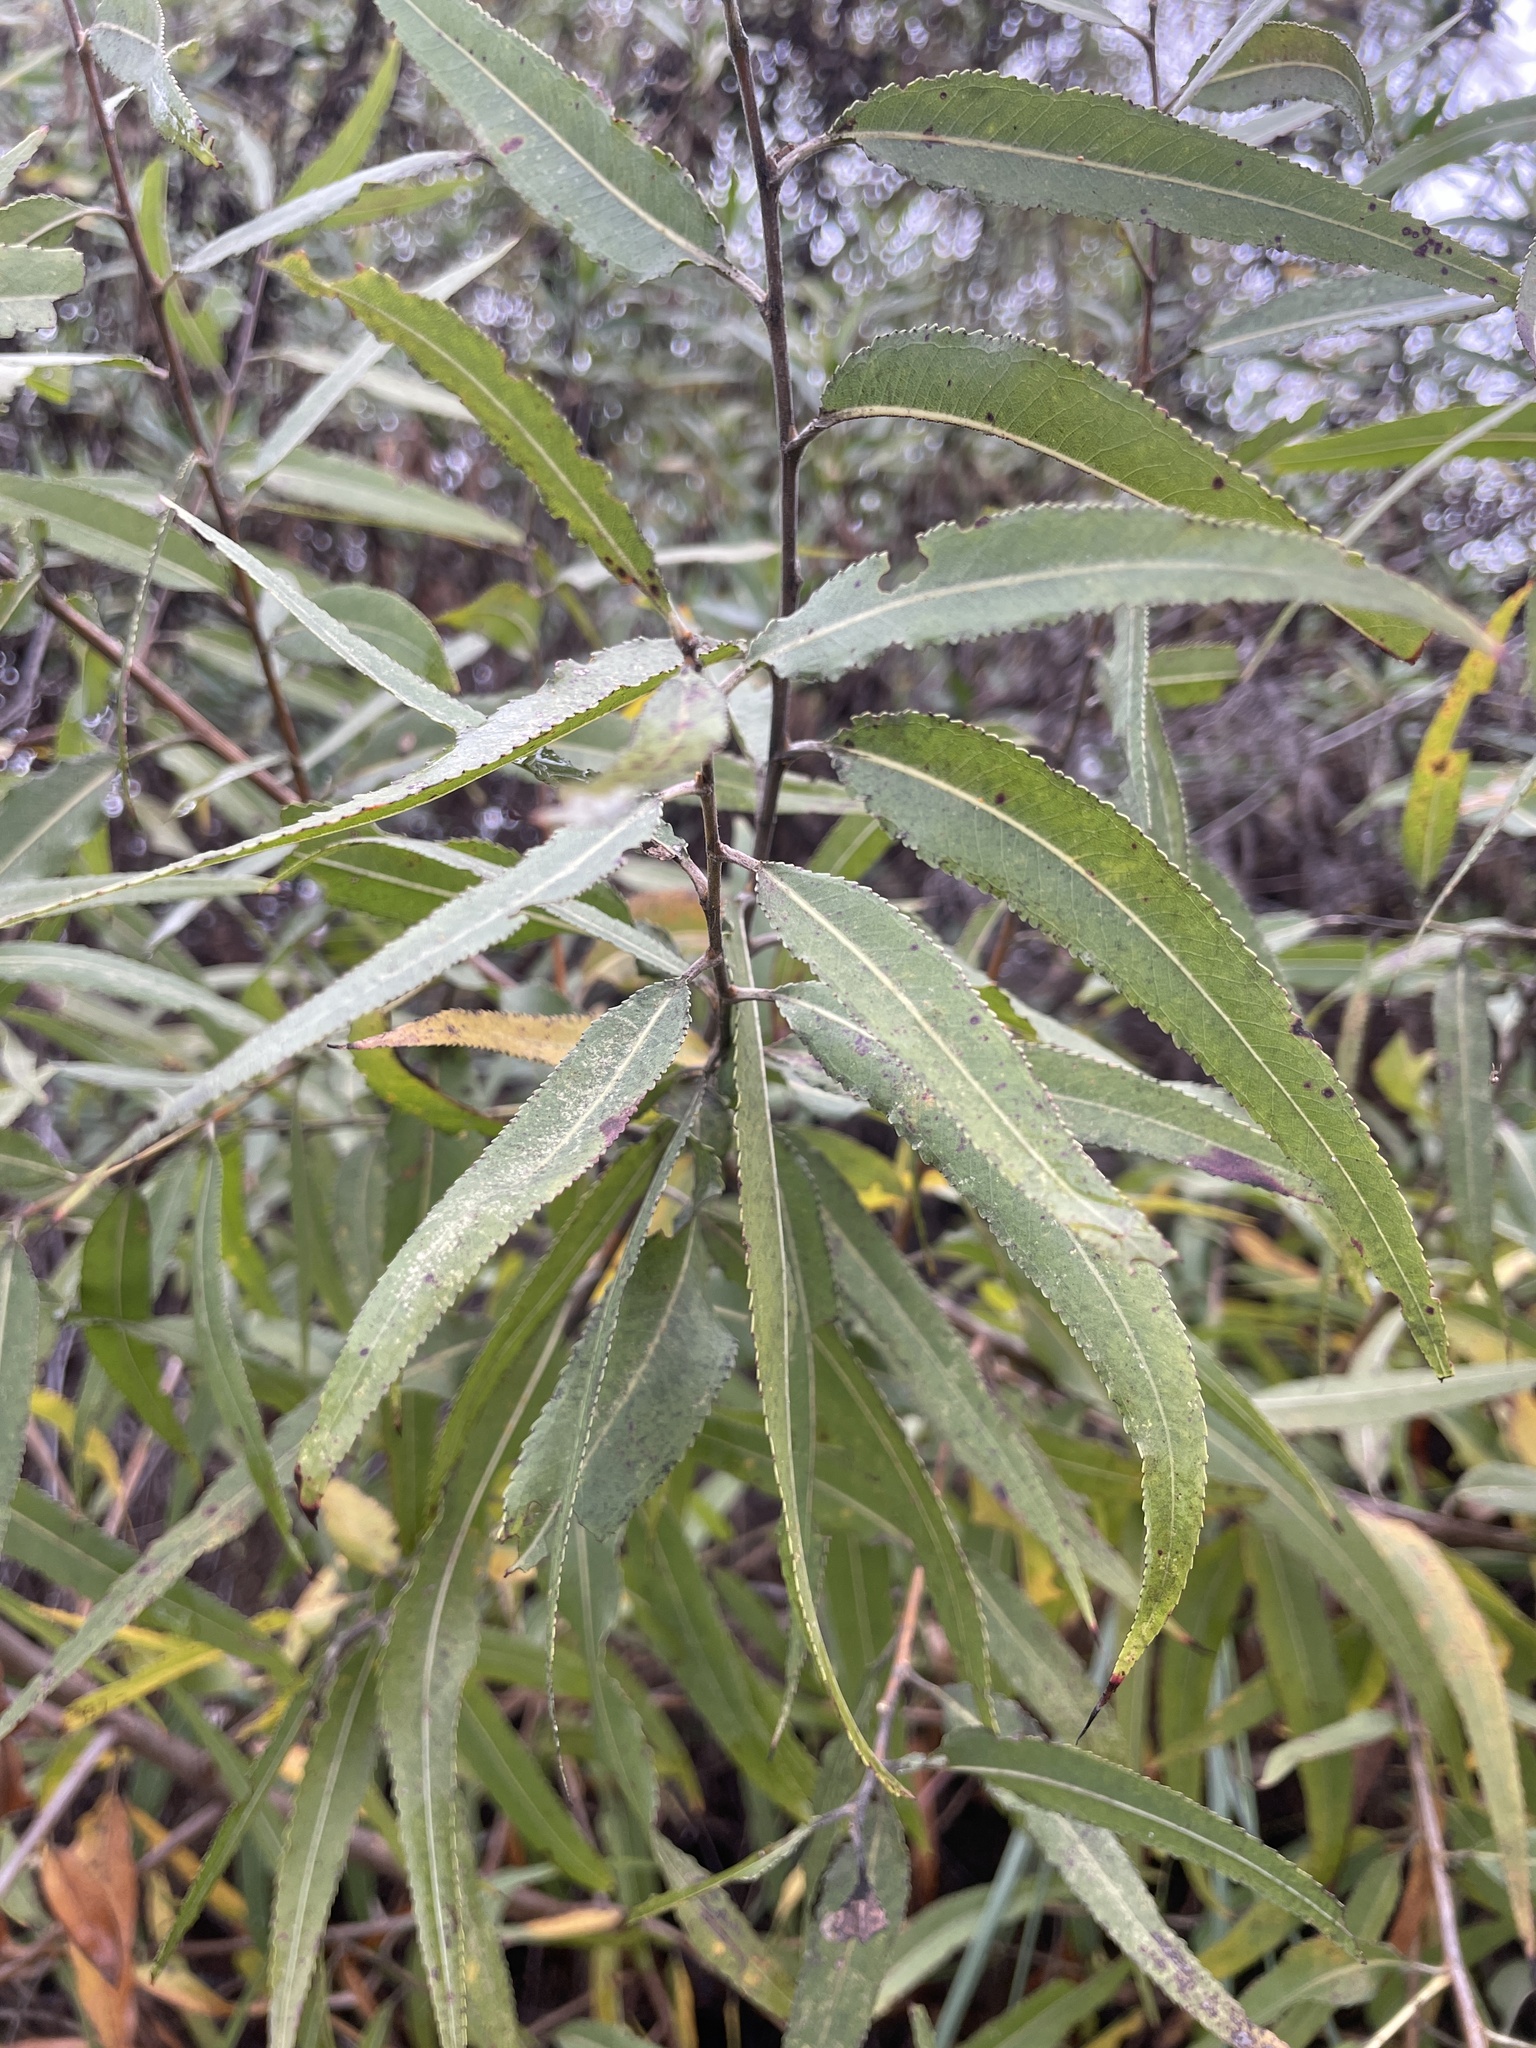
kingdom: Plantae
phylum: Tracheophyta
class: Magnoliopsida
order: Malpighiales
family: Salicaceae
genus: Salix
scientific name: Salix gooddingii
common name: Goodding's willow
